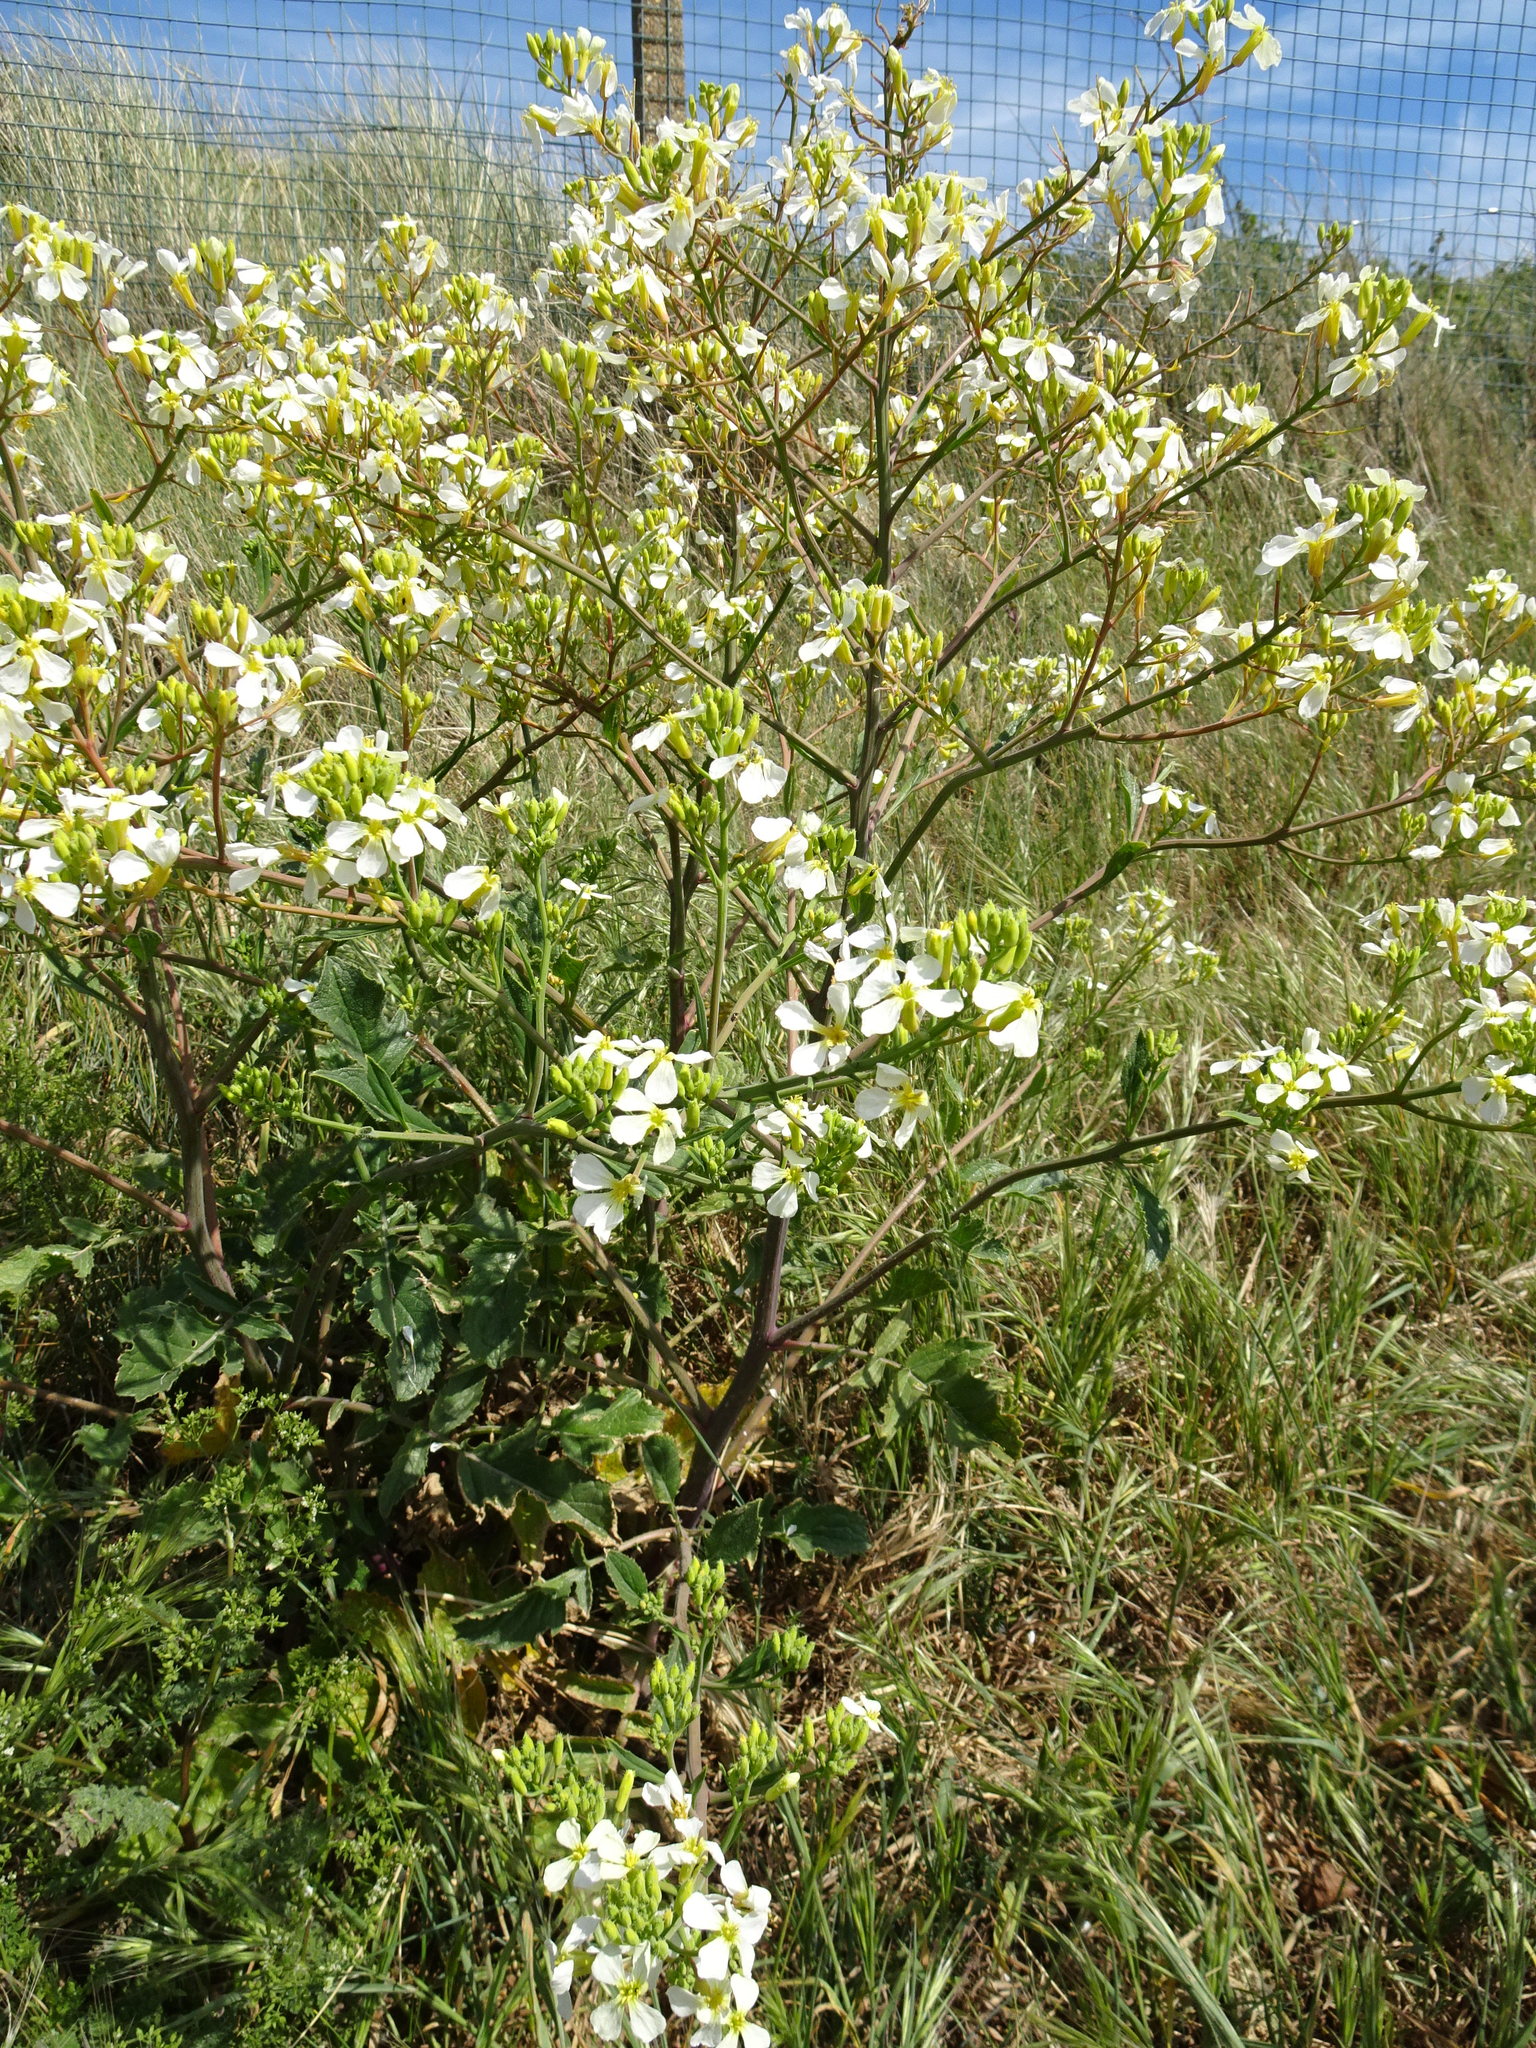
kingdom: Plantae
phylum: Tracheophyta
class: Magnoliopsida
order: Brassicales
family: Brassicaceae
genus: Raphanus
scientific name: Raphanus raphanistrum
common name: Wild radish
